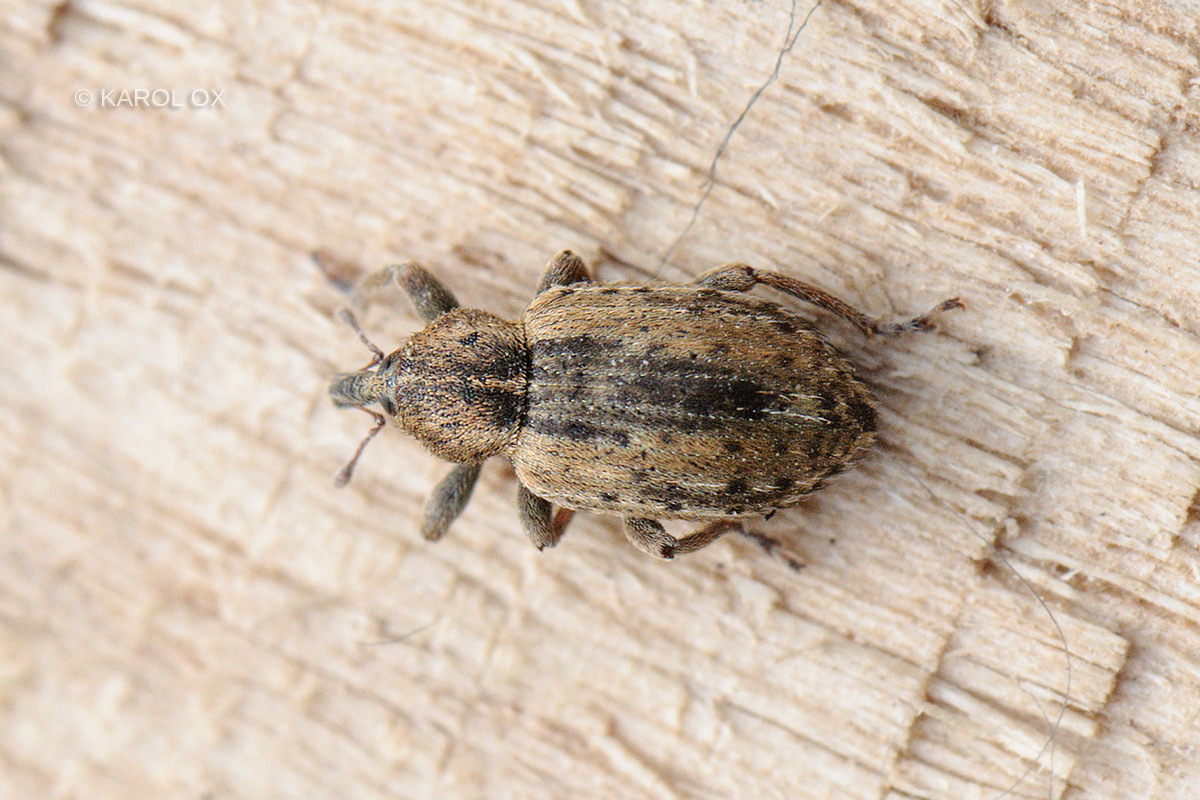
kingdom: Animalia
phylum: Arthropoda
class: Insecta
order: Coleoptera
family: Curculionidae
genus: Hypera
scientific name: Hypera postica
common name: Weevil
